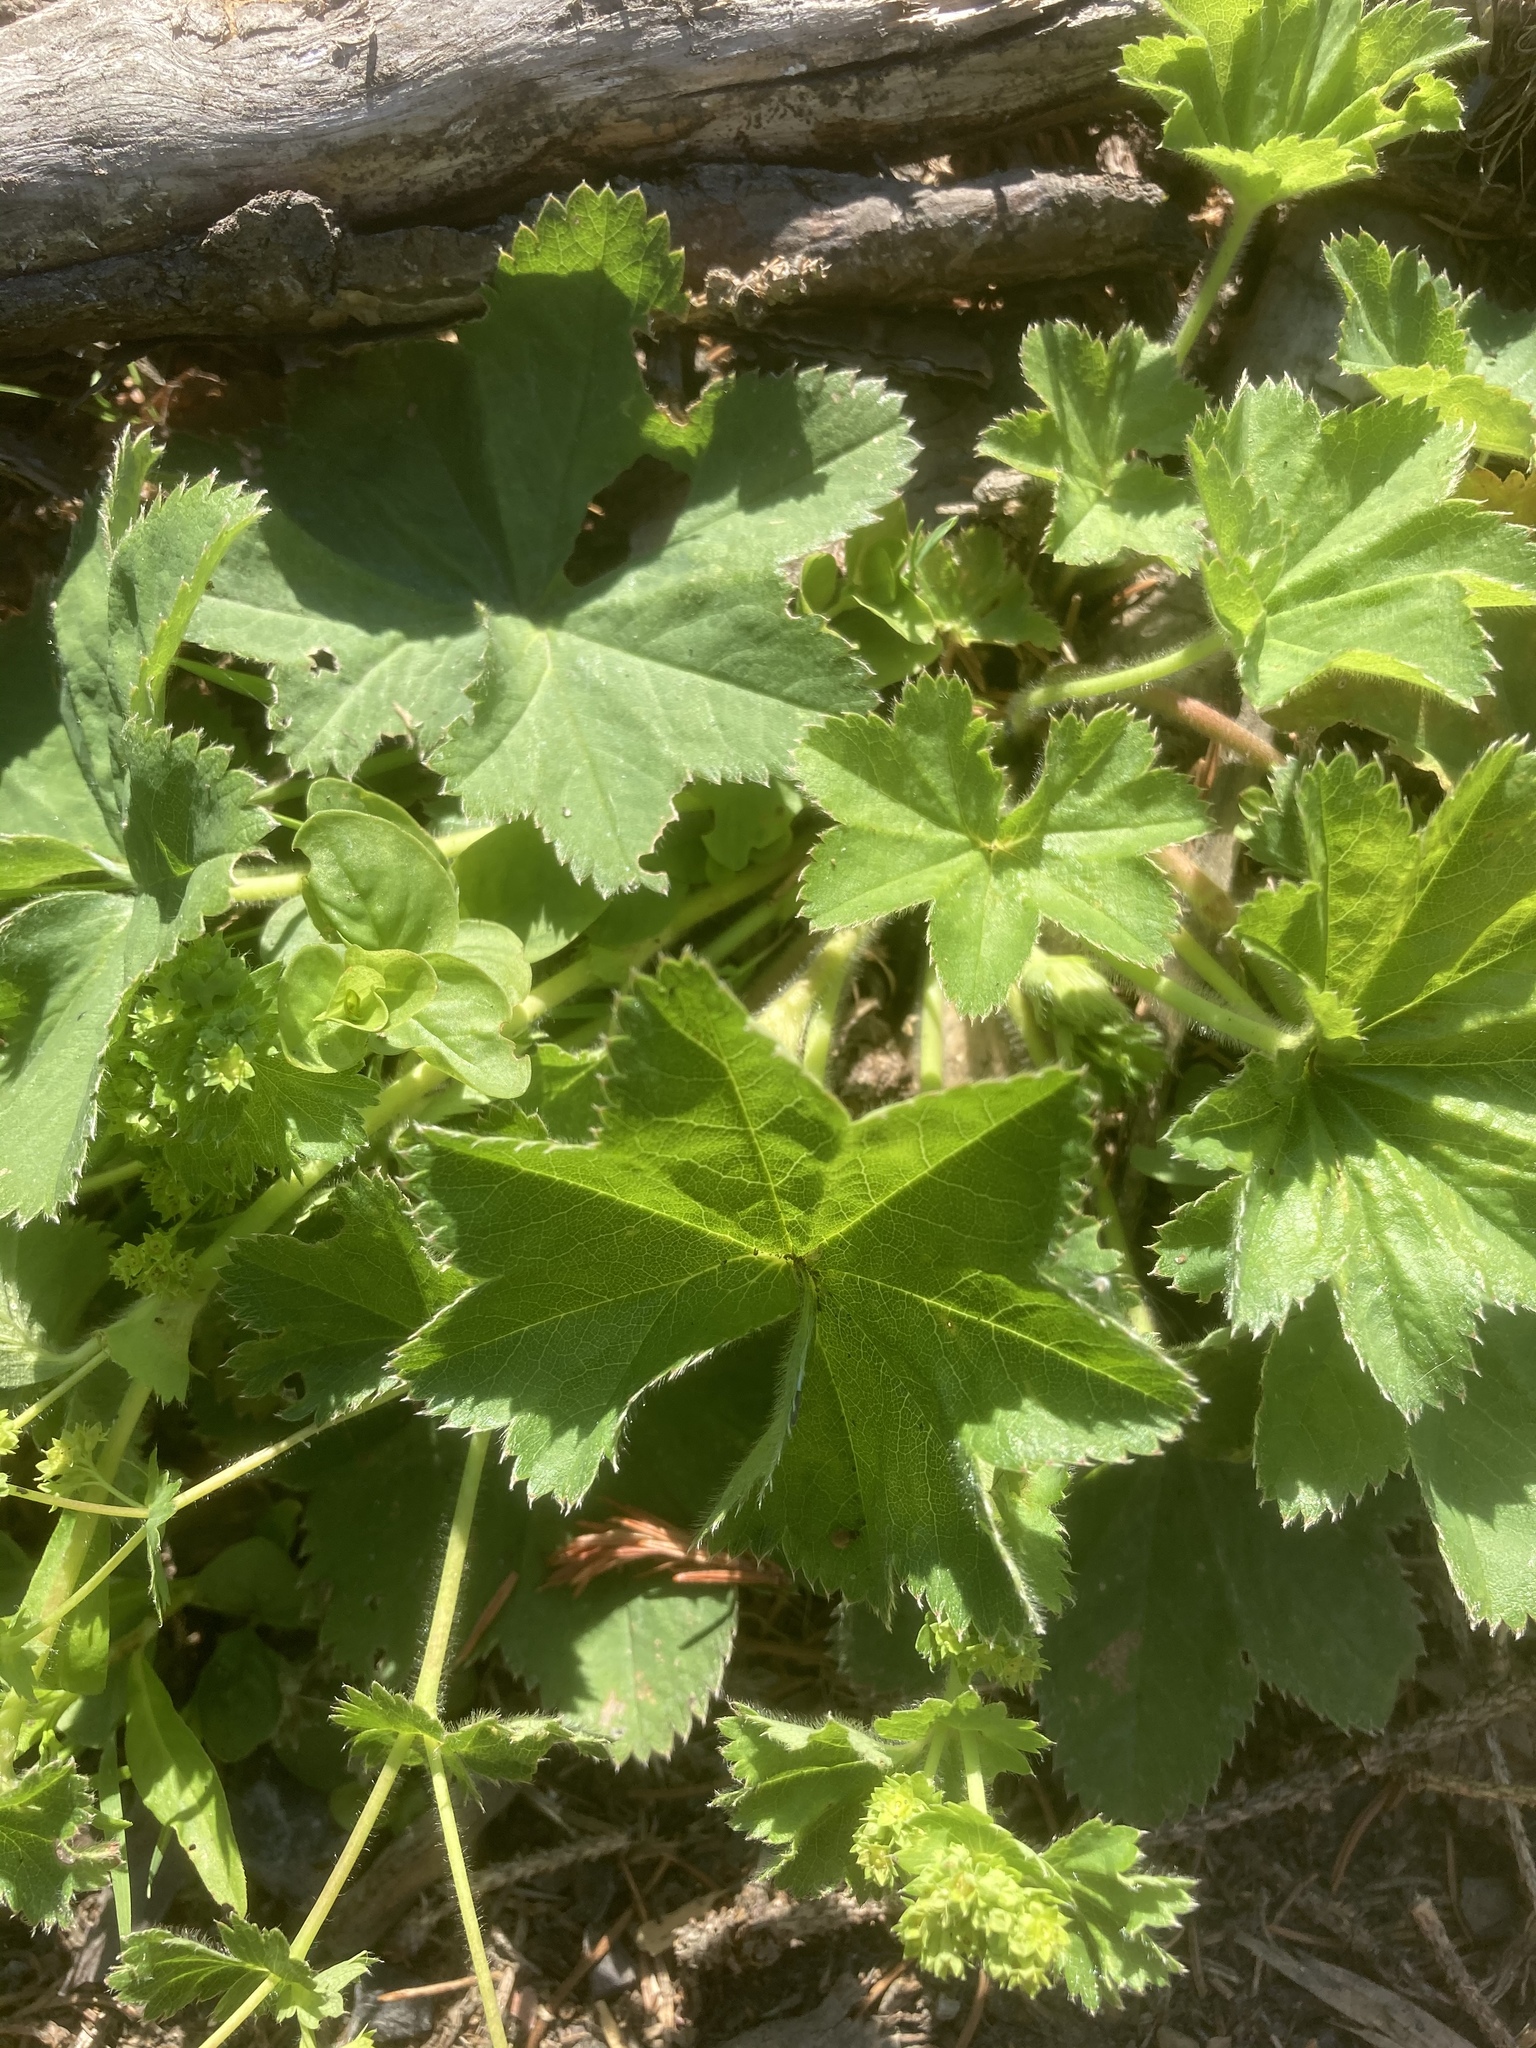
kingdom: Plantae
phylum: Tracheophyta
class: Magnoliopsida
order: Rosales
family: Rosaceae
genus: Alchemilla
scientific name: Alchemilla vulgaris
